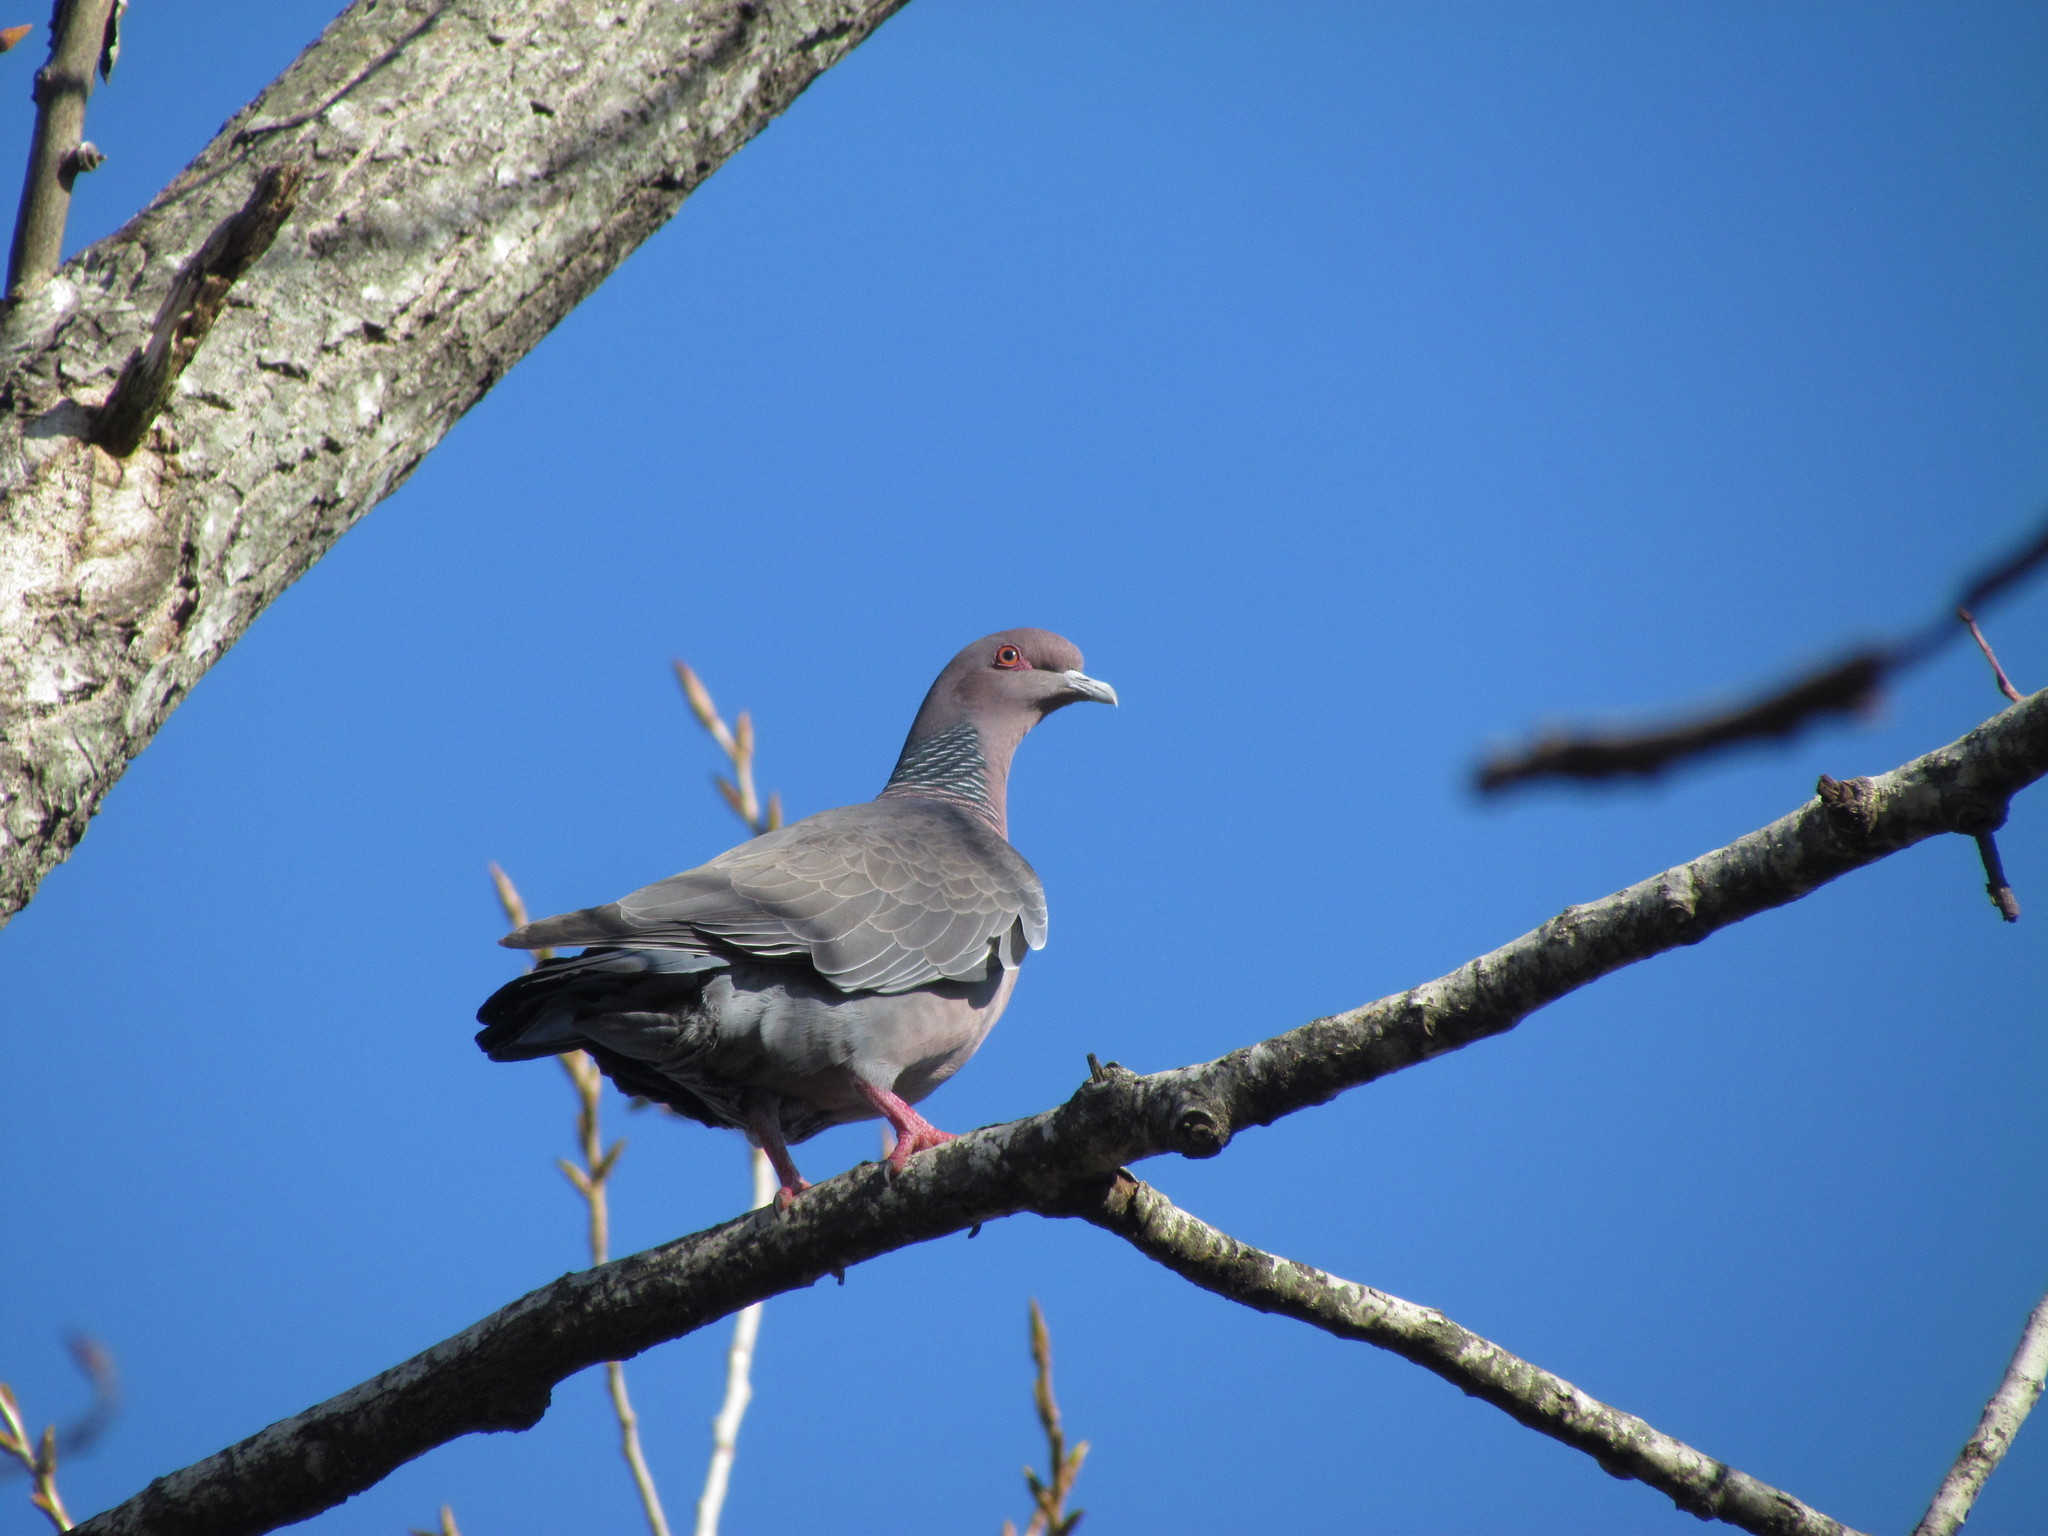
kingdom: Animalia
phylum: Chordata
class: Aves
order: Columbiformes
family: Columbidae
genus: Patagioenas
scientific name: Patagioenas picazuro
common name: Picazuro pigeon
